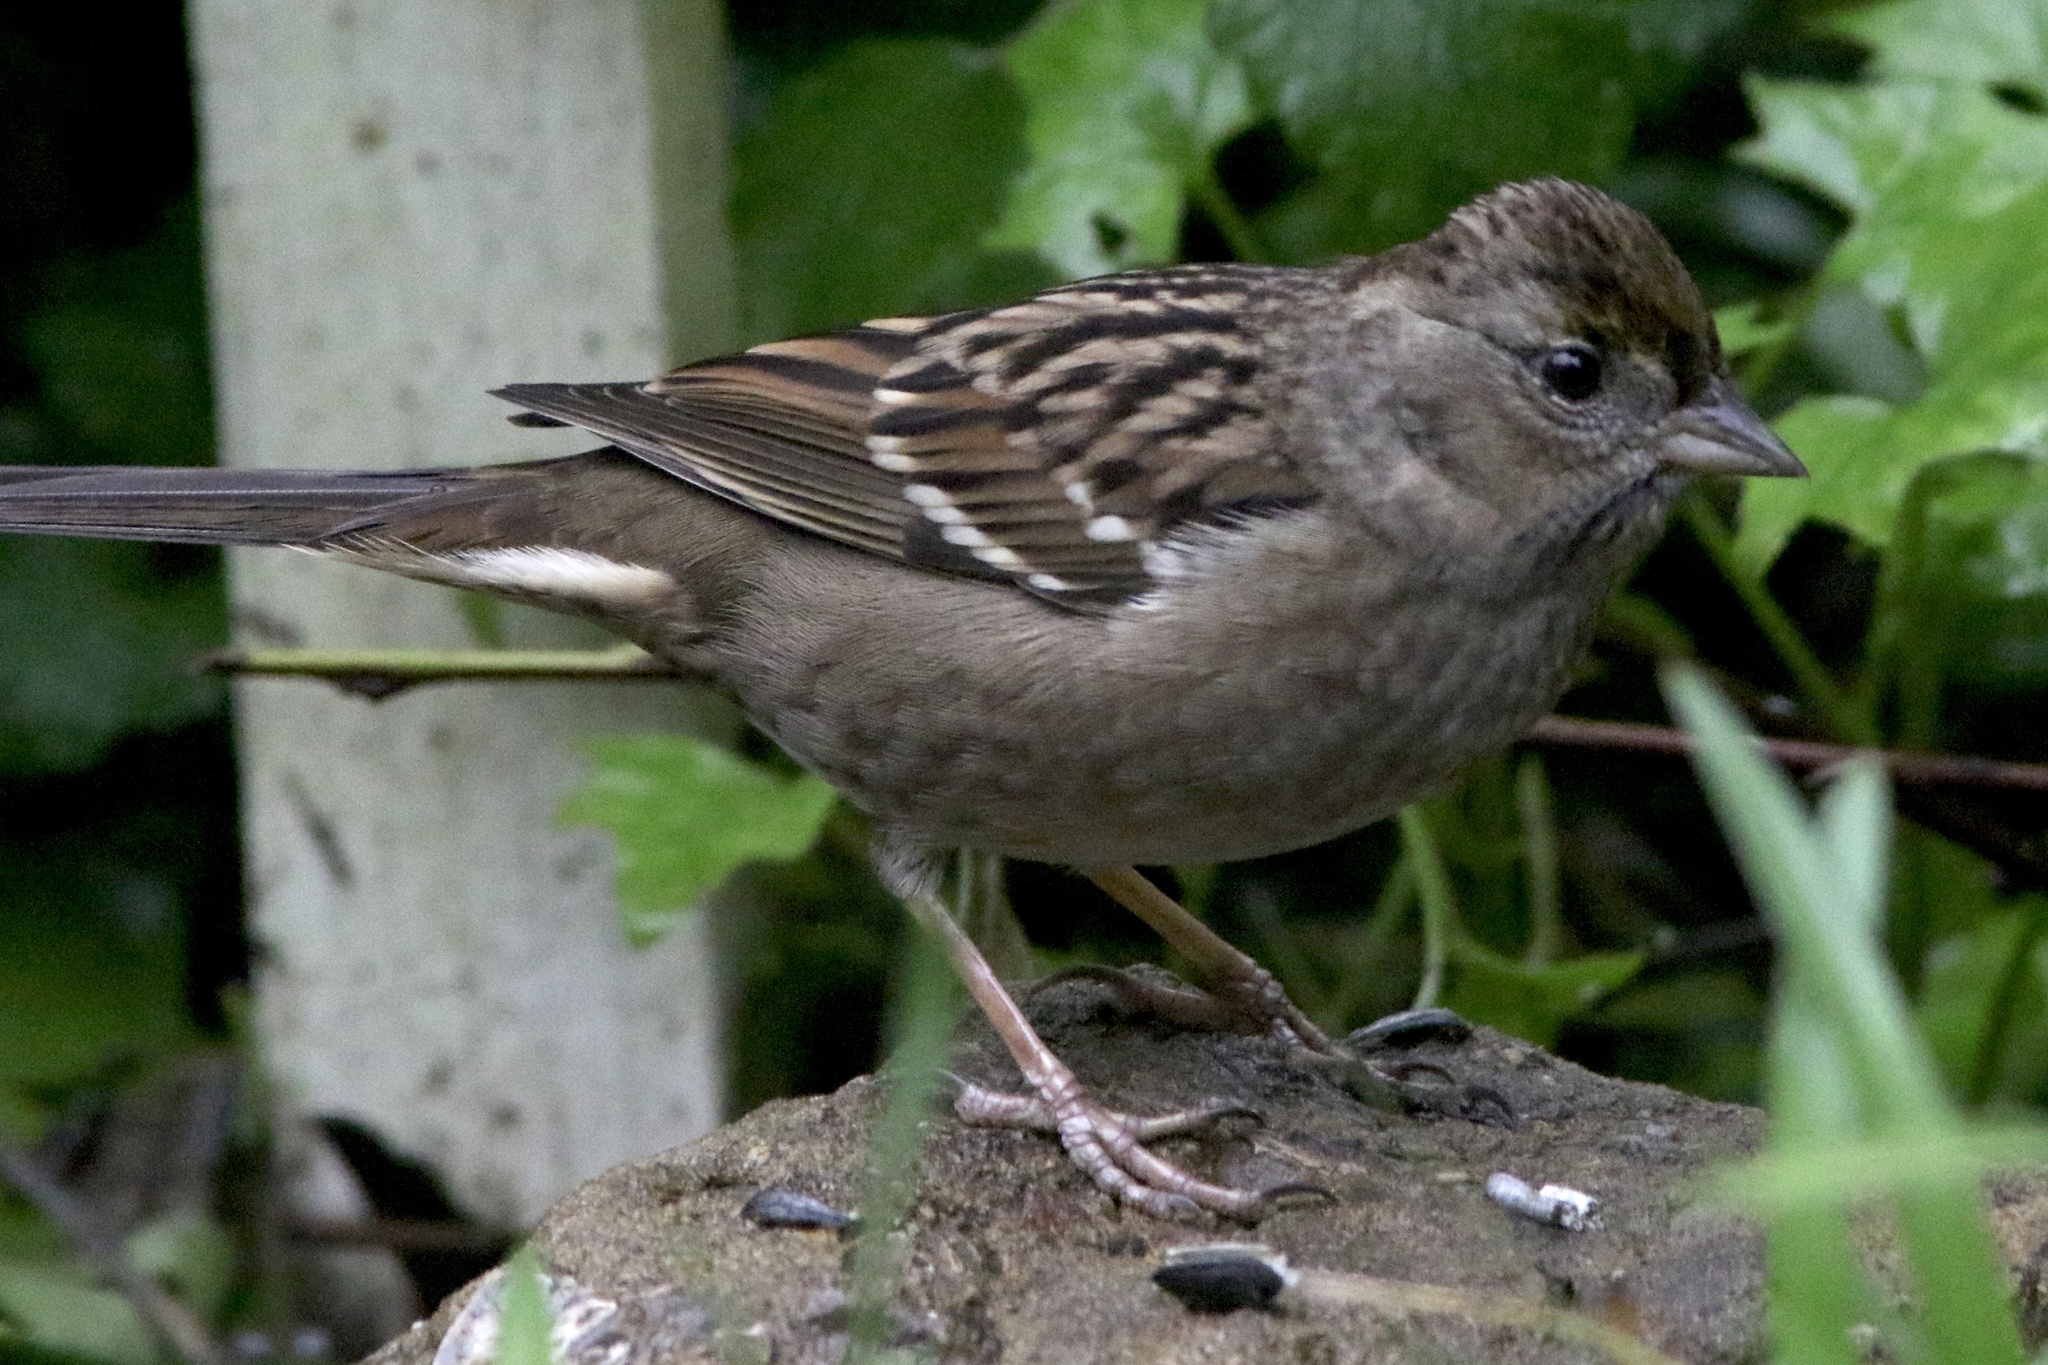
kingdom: Animalia
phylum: Chordata
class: Aves
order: Passeriformes
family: Passerellidae
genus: Zonotrichia
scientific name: Zonotrichia atricapilla
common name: Golden-crowned sparrow
